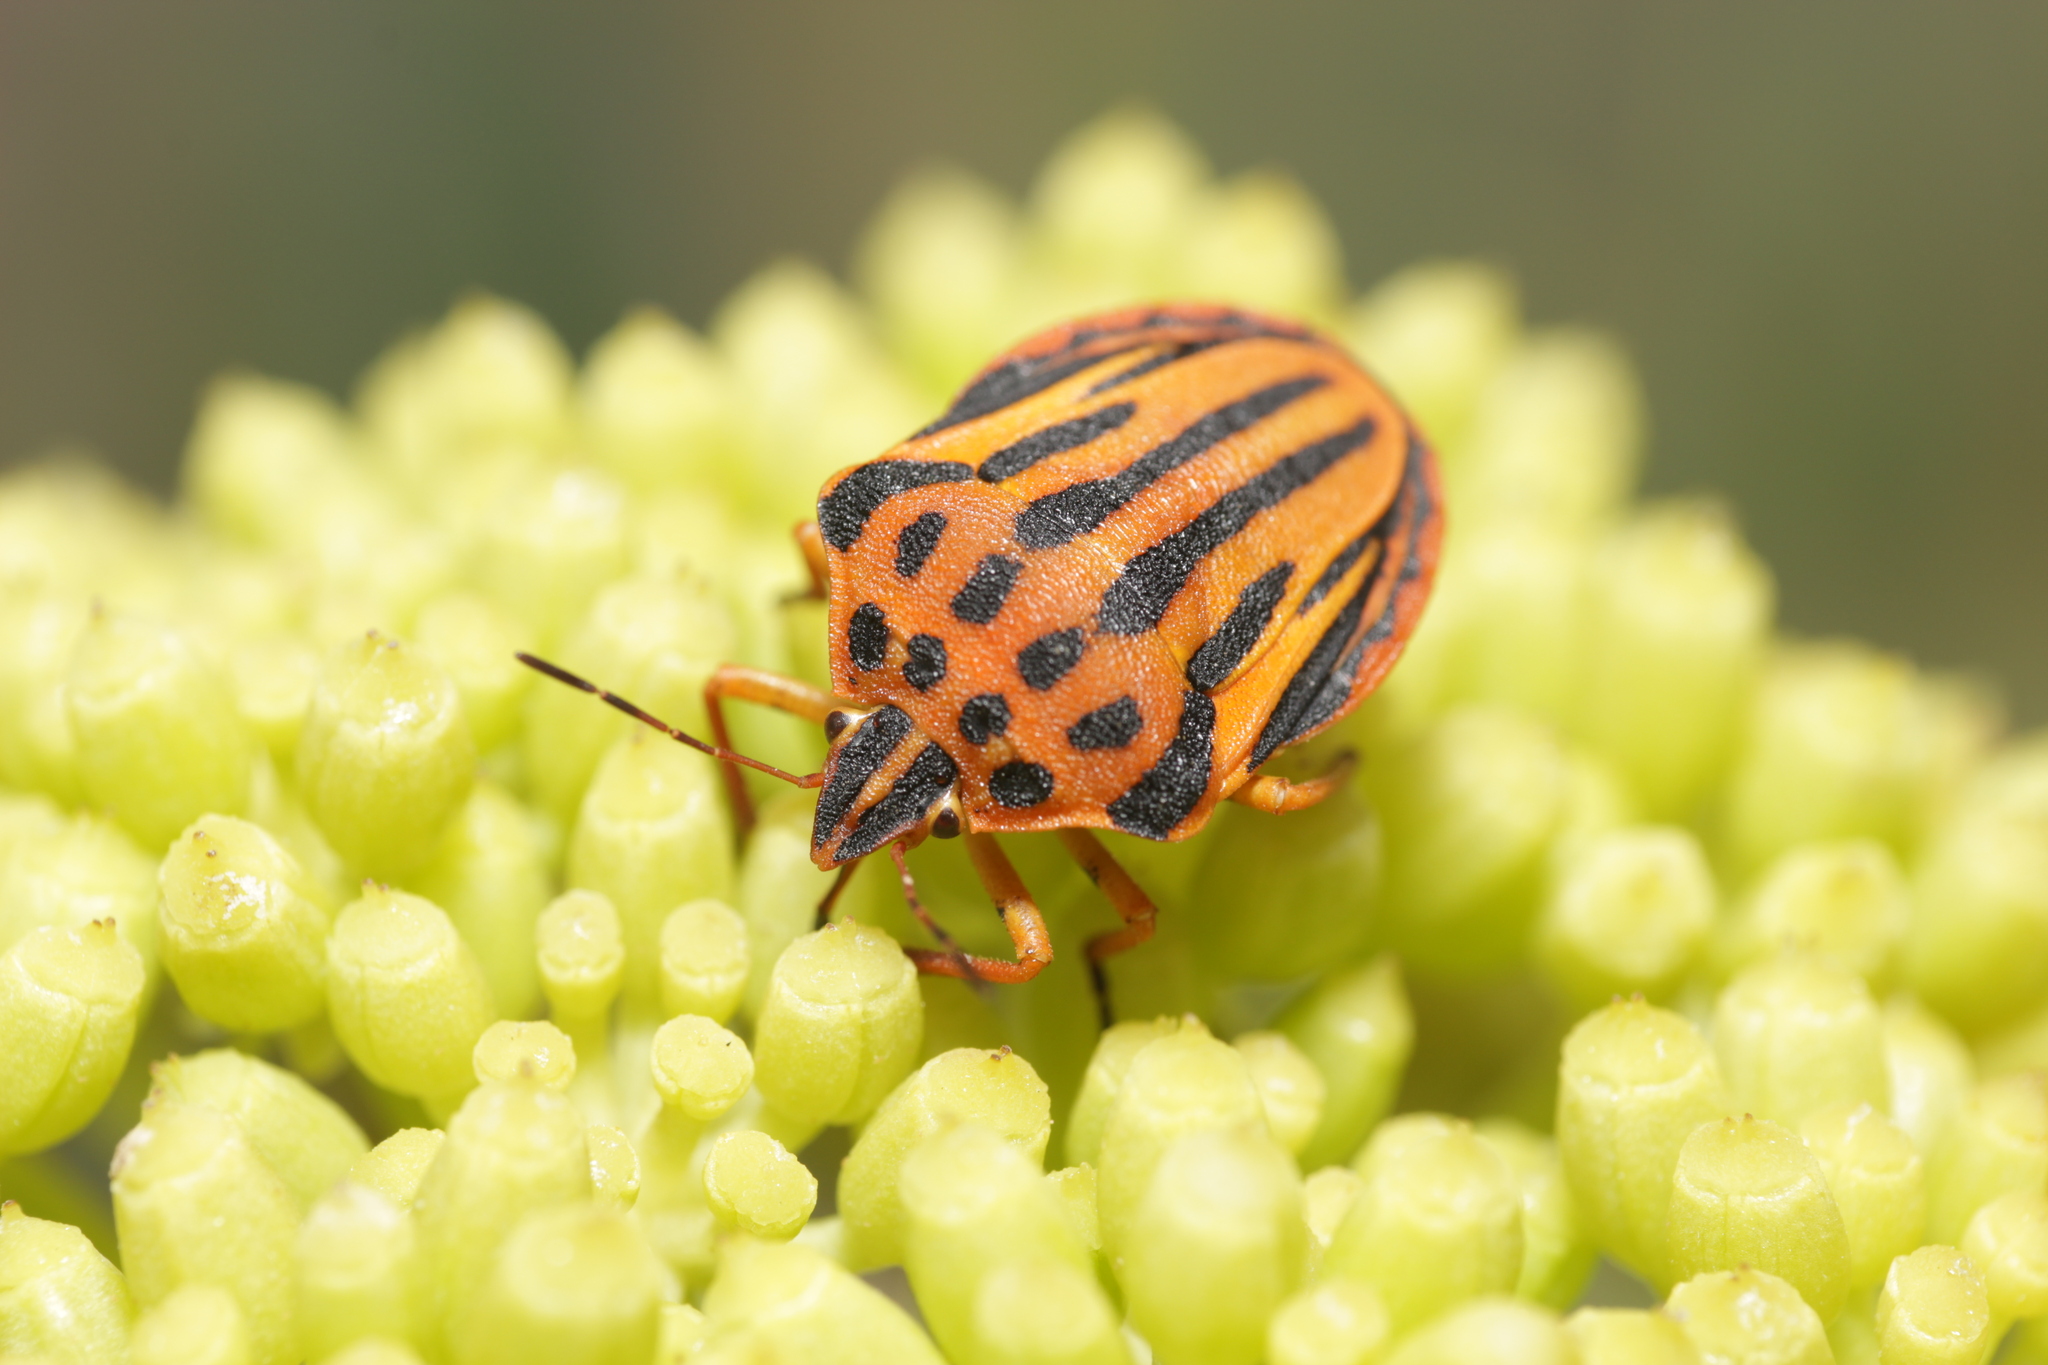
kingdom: Animalia
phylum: Arthropoda
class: Insecta
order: Hemiptera
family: Pentatomidae
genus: Graphosoma
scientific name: Graphosoma semipunctatum
